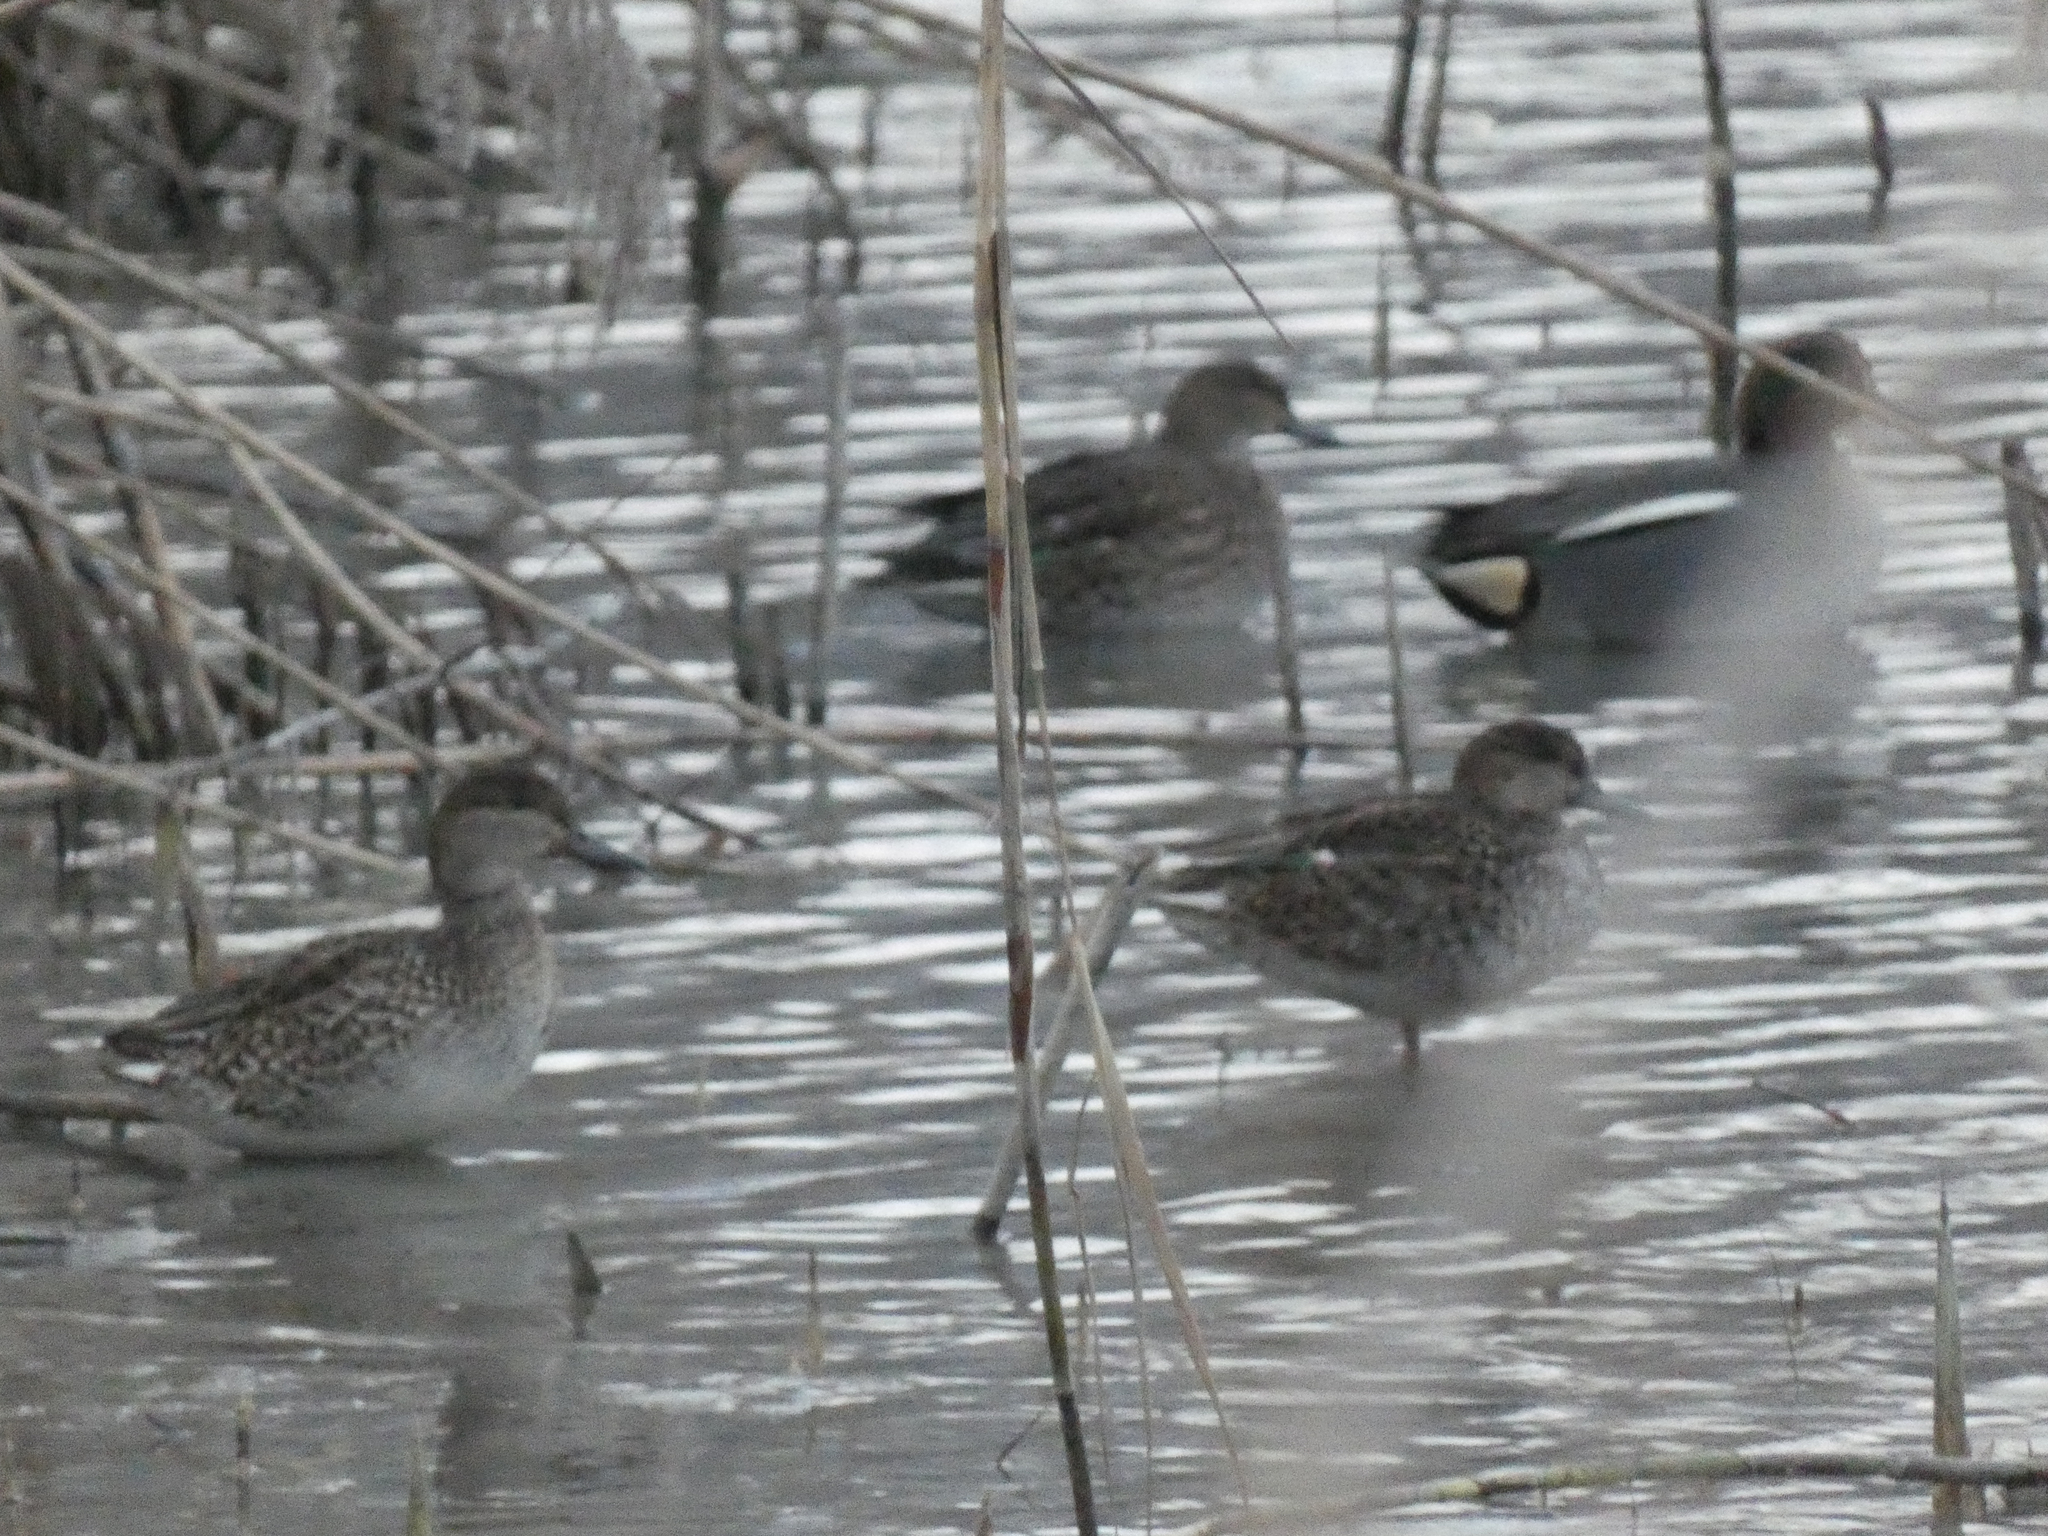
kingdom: Animalia
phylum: Chordata
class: Aves
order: Anseriformes
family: Anatidae
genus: Anas
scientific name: Anas crecca
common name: Eurasian teal
